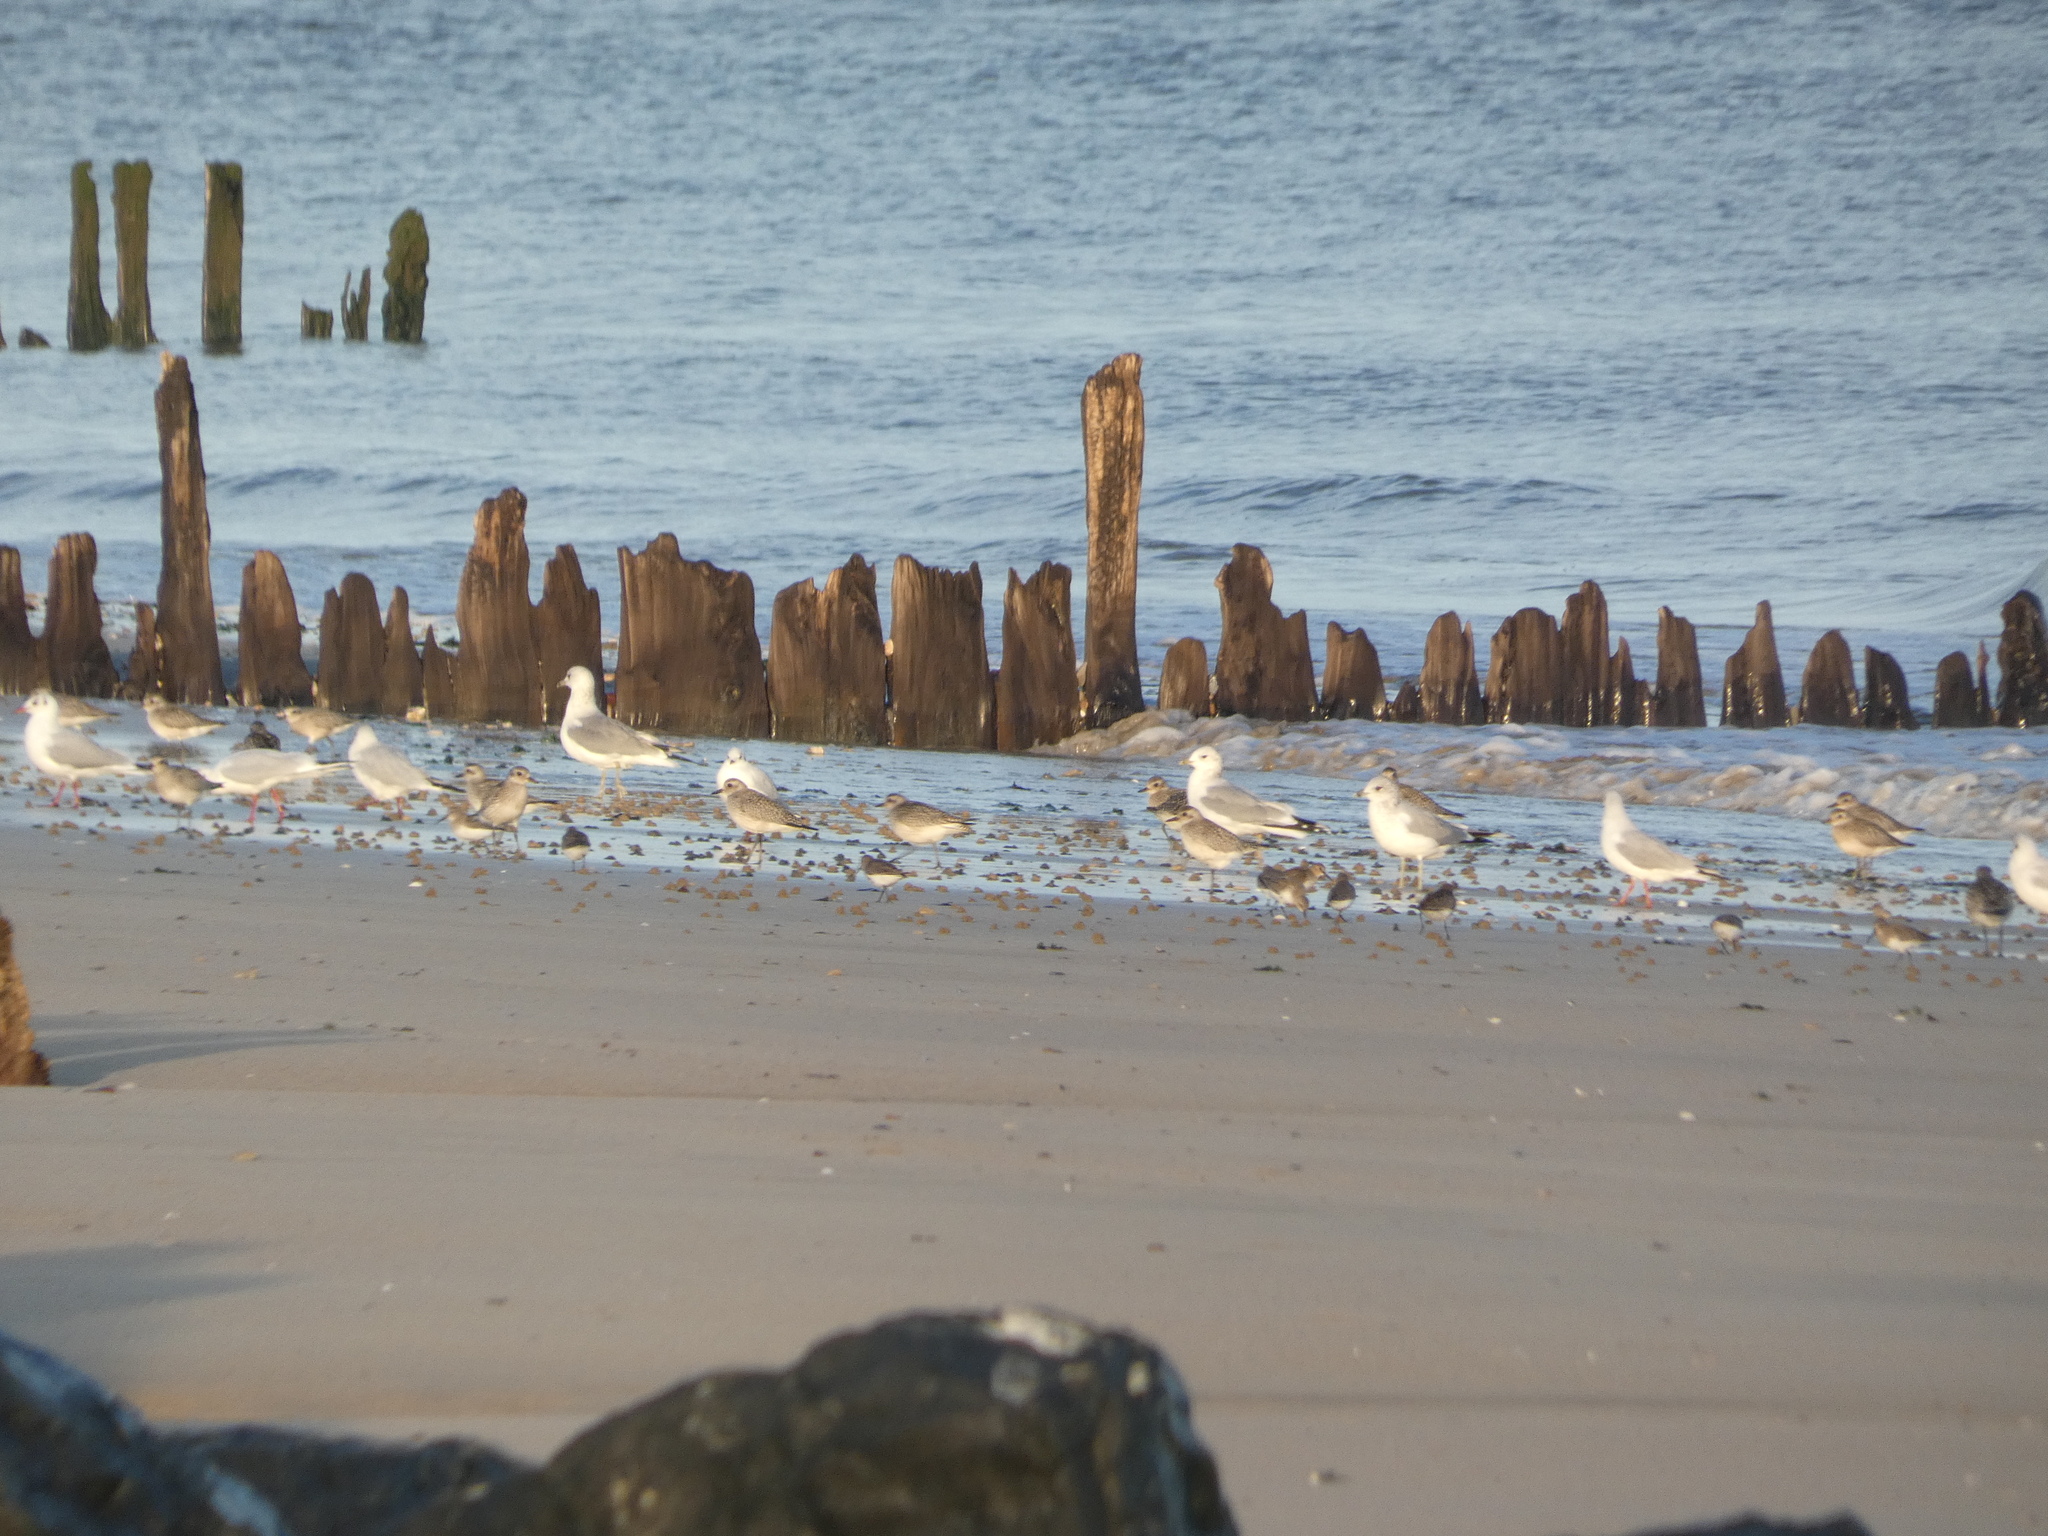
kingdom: Animalia
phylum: Chordata
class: Aves
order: Charadriiformes
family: Laridae
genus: Larus
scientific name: Larus canus
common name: Mew gull
